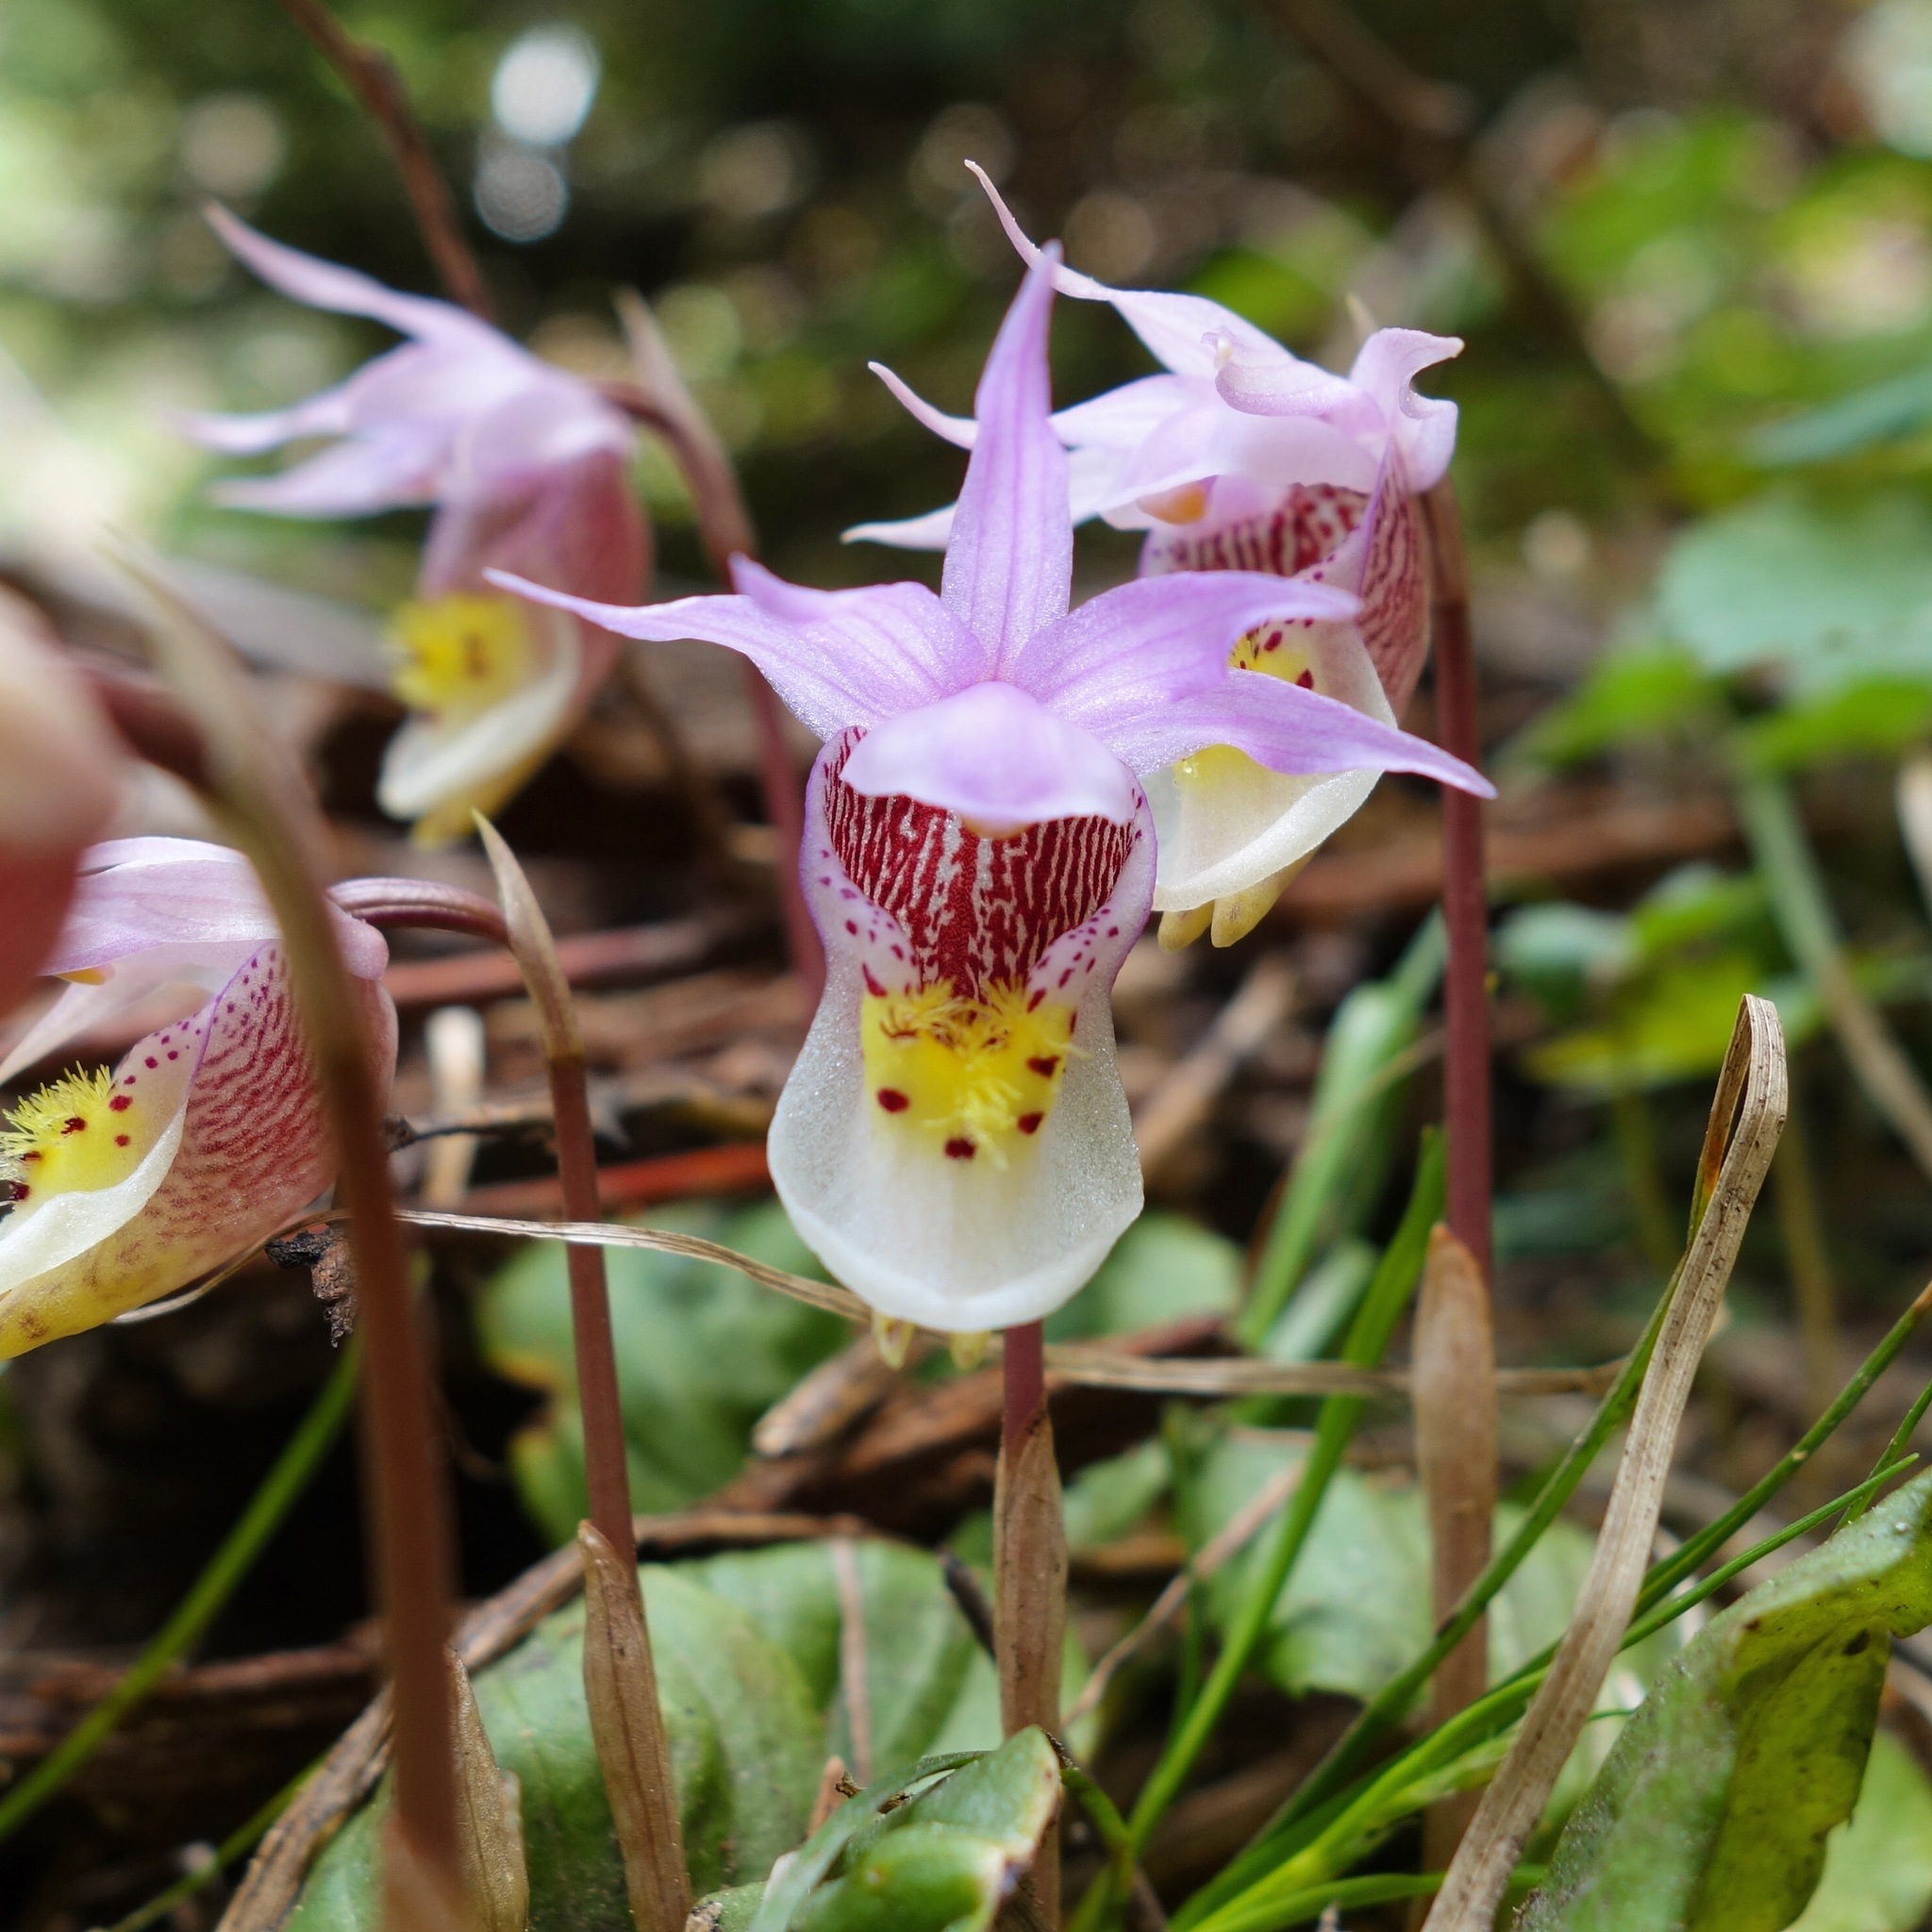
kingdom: Plantae
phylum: Tracheophyta
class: Liliopsida
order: Asparagales
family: Orchidaceae
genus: Calypso
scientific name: Calypso bulbosa
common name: Calypso
